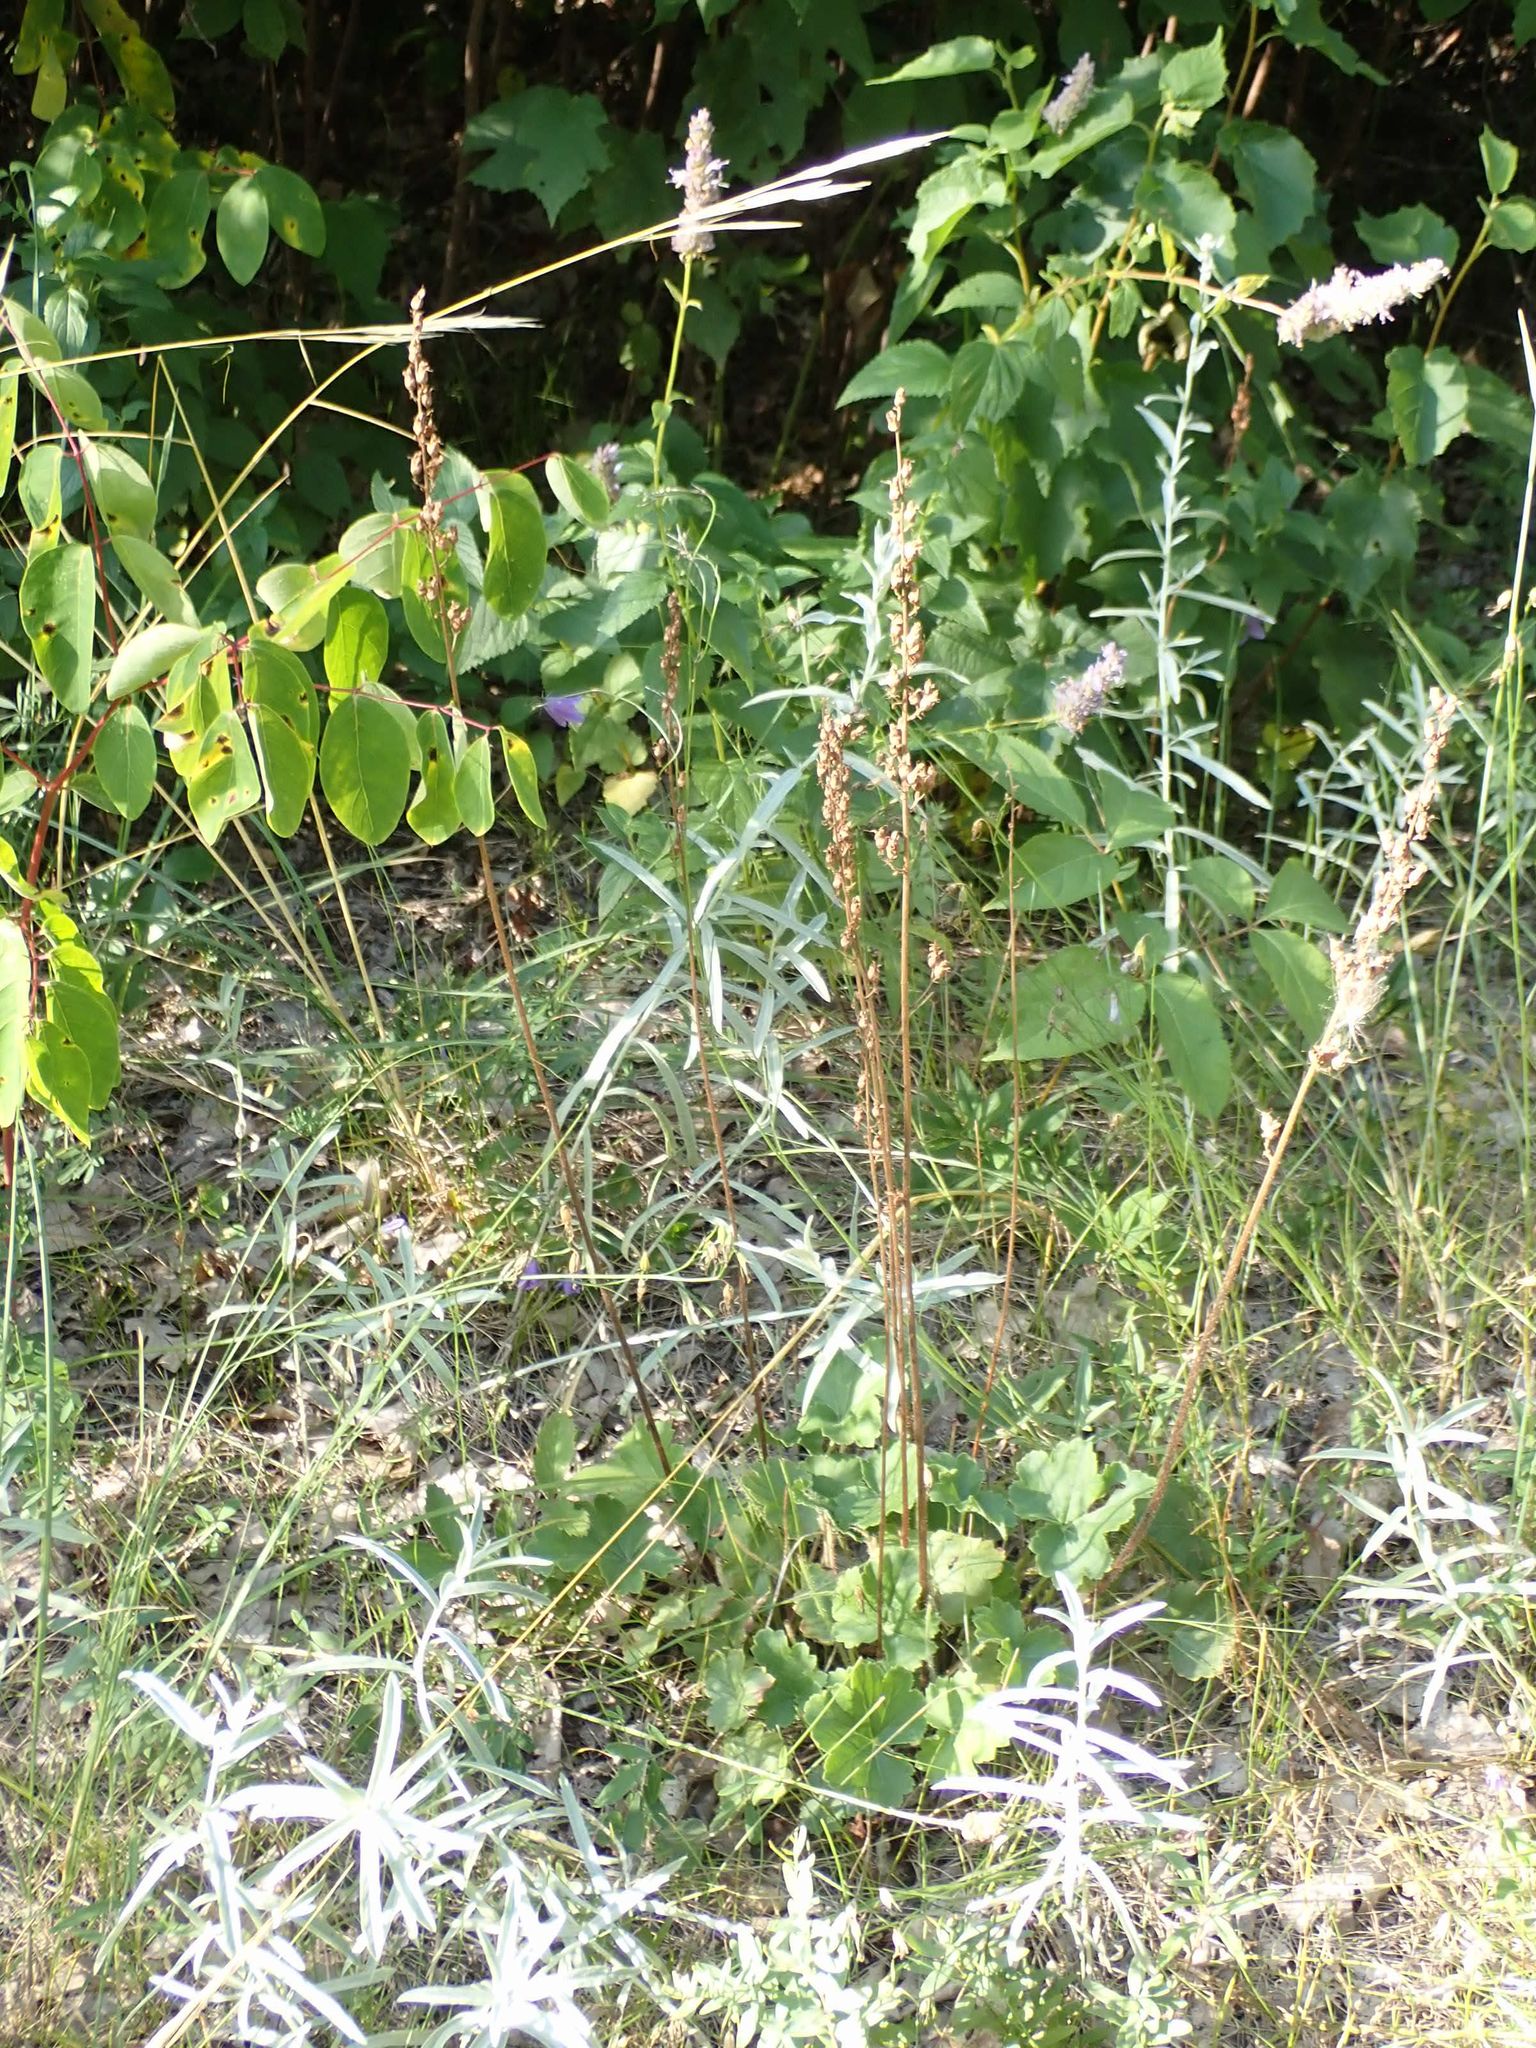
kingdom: Plantae
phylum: Tracheophyta
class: Magnoliopsida
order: Saxifragales
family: Saxifragaceae
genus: Heuchera
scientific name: Heuchera richardsonii
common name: Richardson's alumroot
